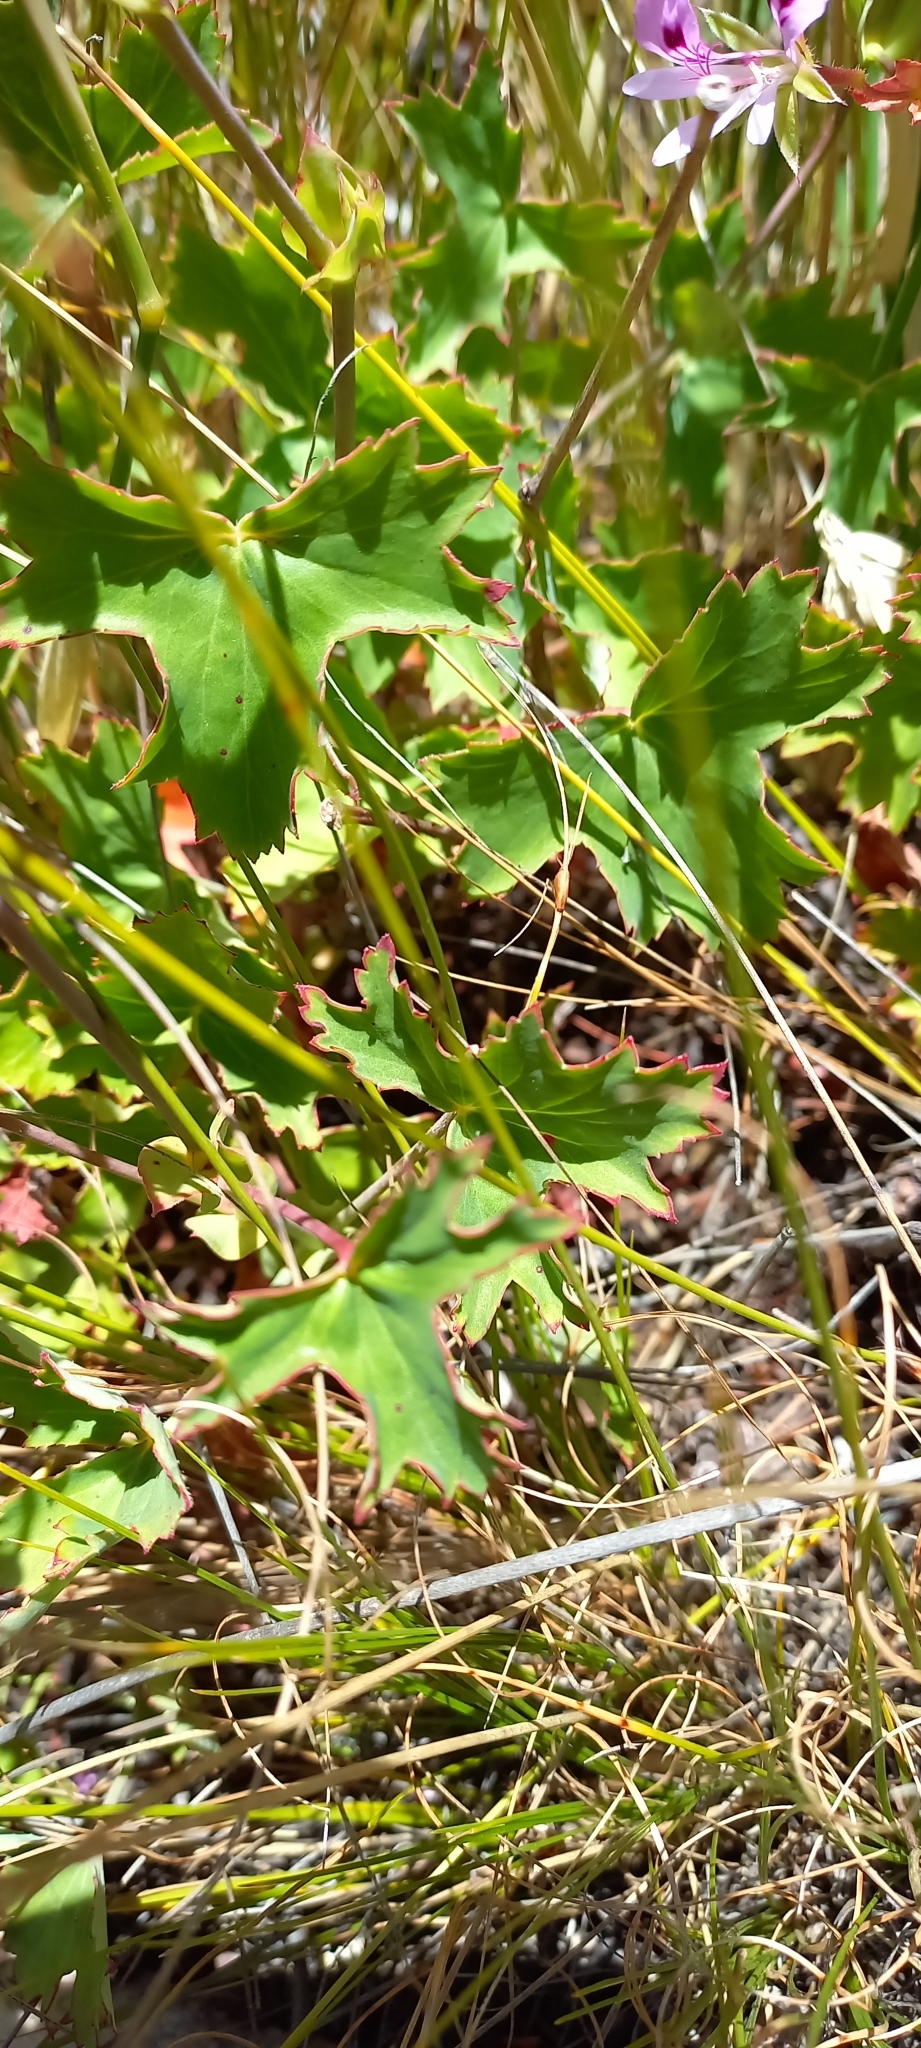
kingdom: Plantae
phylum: Tracheophyta
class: Magnoliopsida
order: Geraniales
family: Geraniaceae
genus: Pelargonium
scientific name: Pelargonium grandiflorum
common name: Large-flower pelargonium
